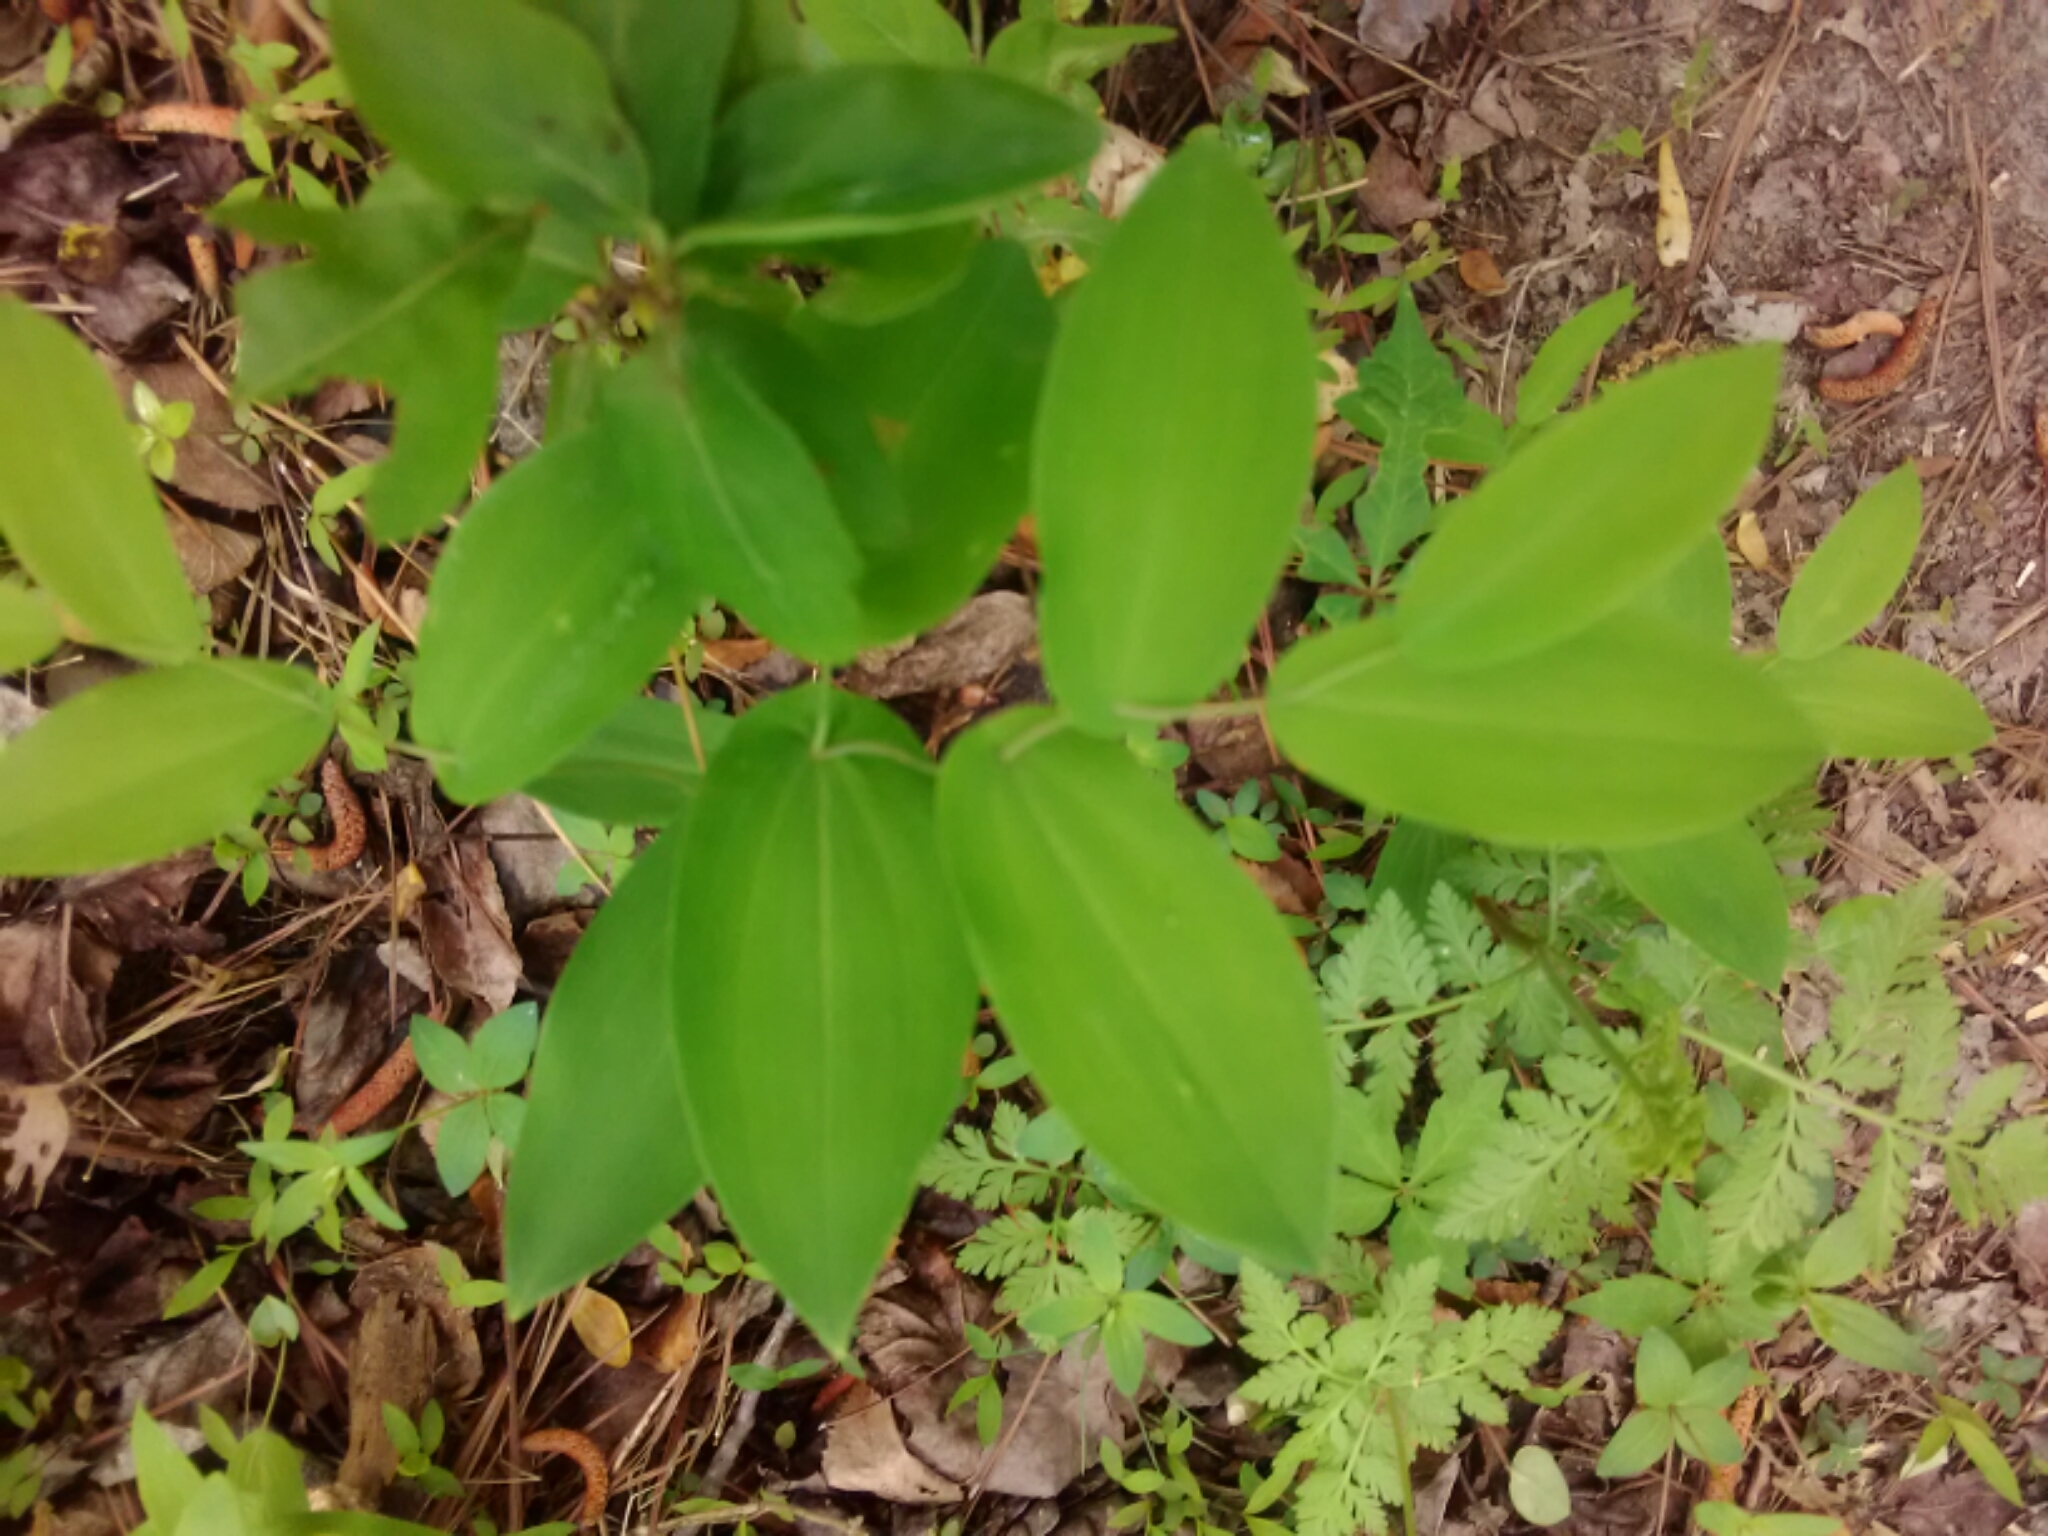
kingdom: Plantae
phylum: Tracheophyta
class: Liliopsida
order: Liliales
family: Colchicaceae
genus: Uvularia
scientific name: Uvularia perfoliata
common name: Perfoliate bellwort
